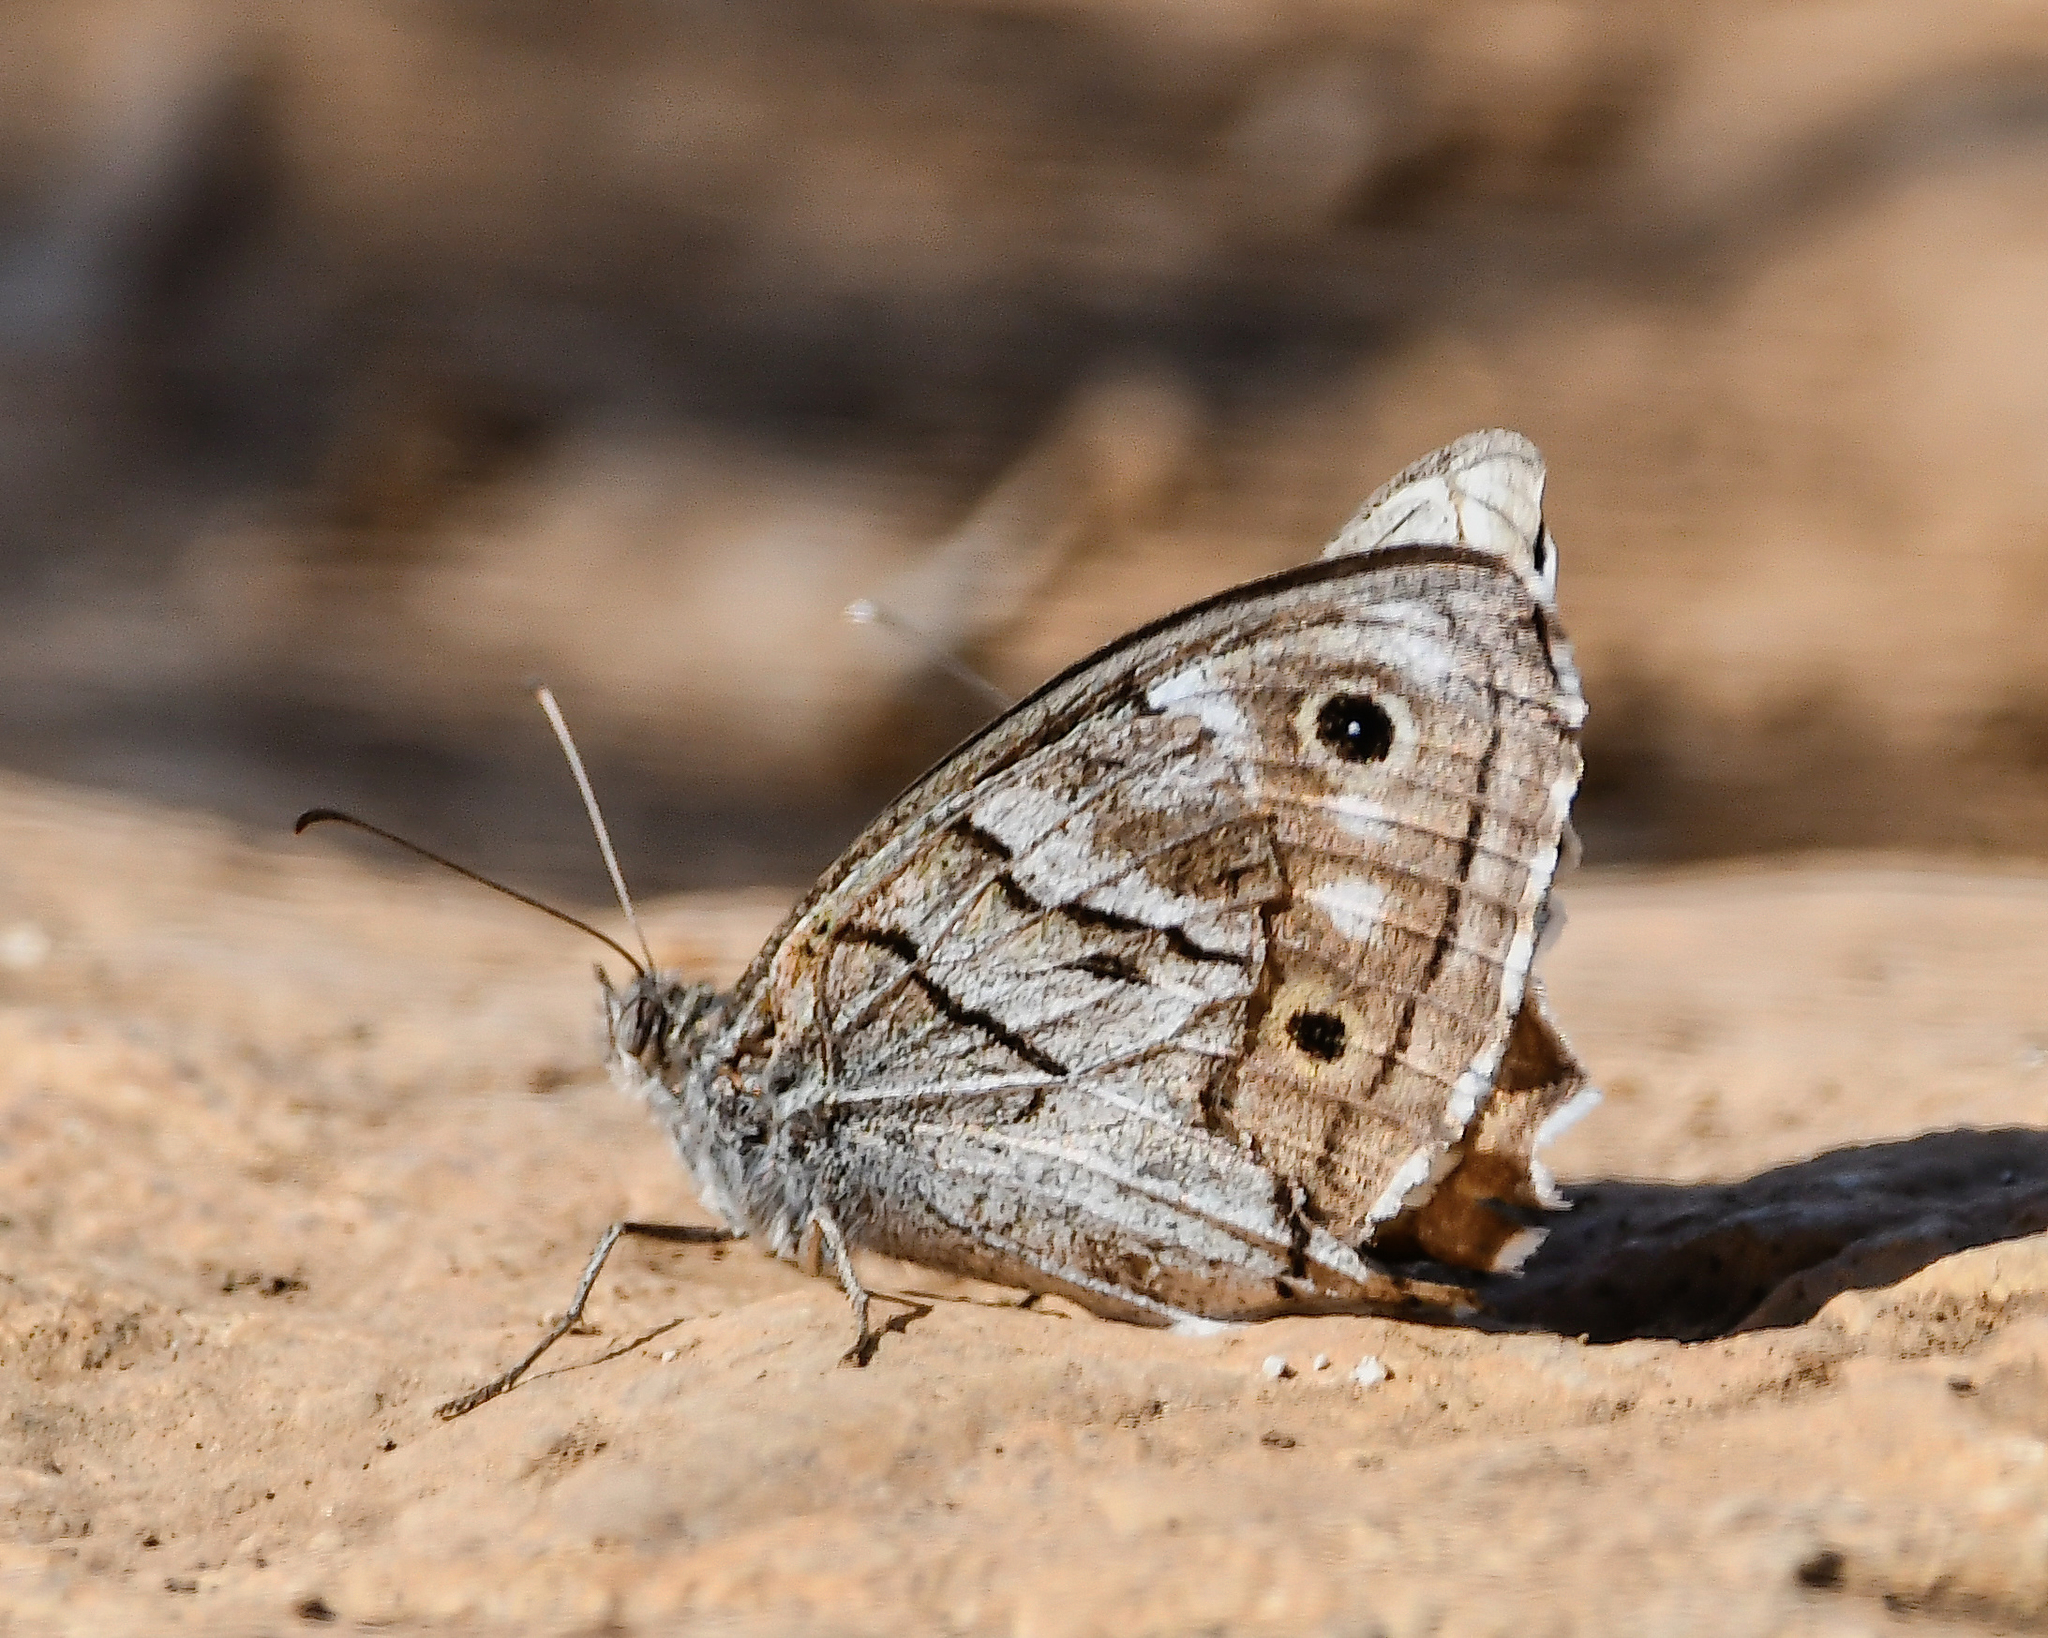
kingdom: Animalia
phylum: Arthropoda
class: Insecta
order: Lepidoptera
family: Nymphalidae
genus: Hipparchia
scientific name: Hipparchia fidia
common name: Striped grayling
